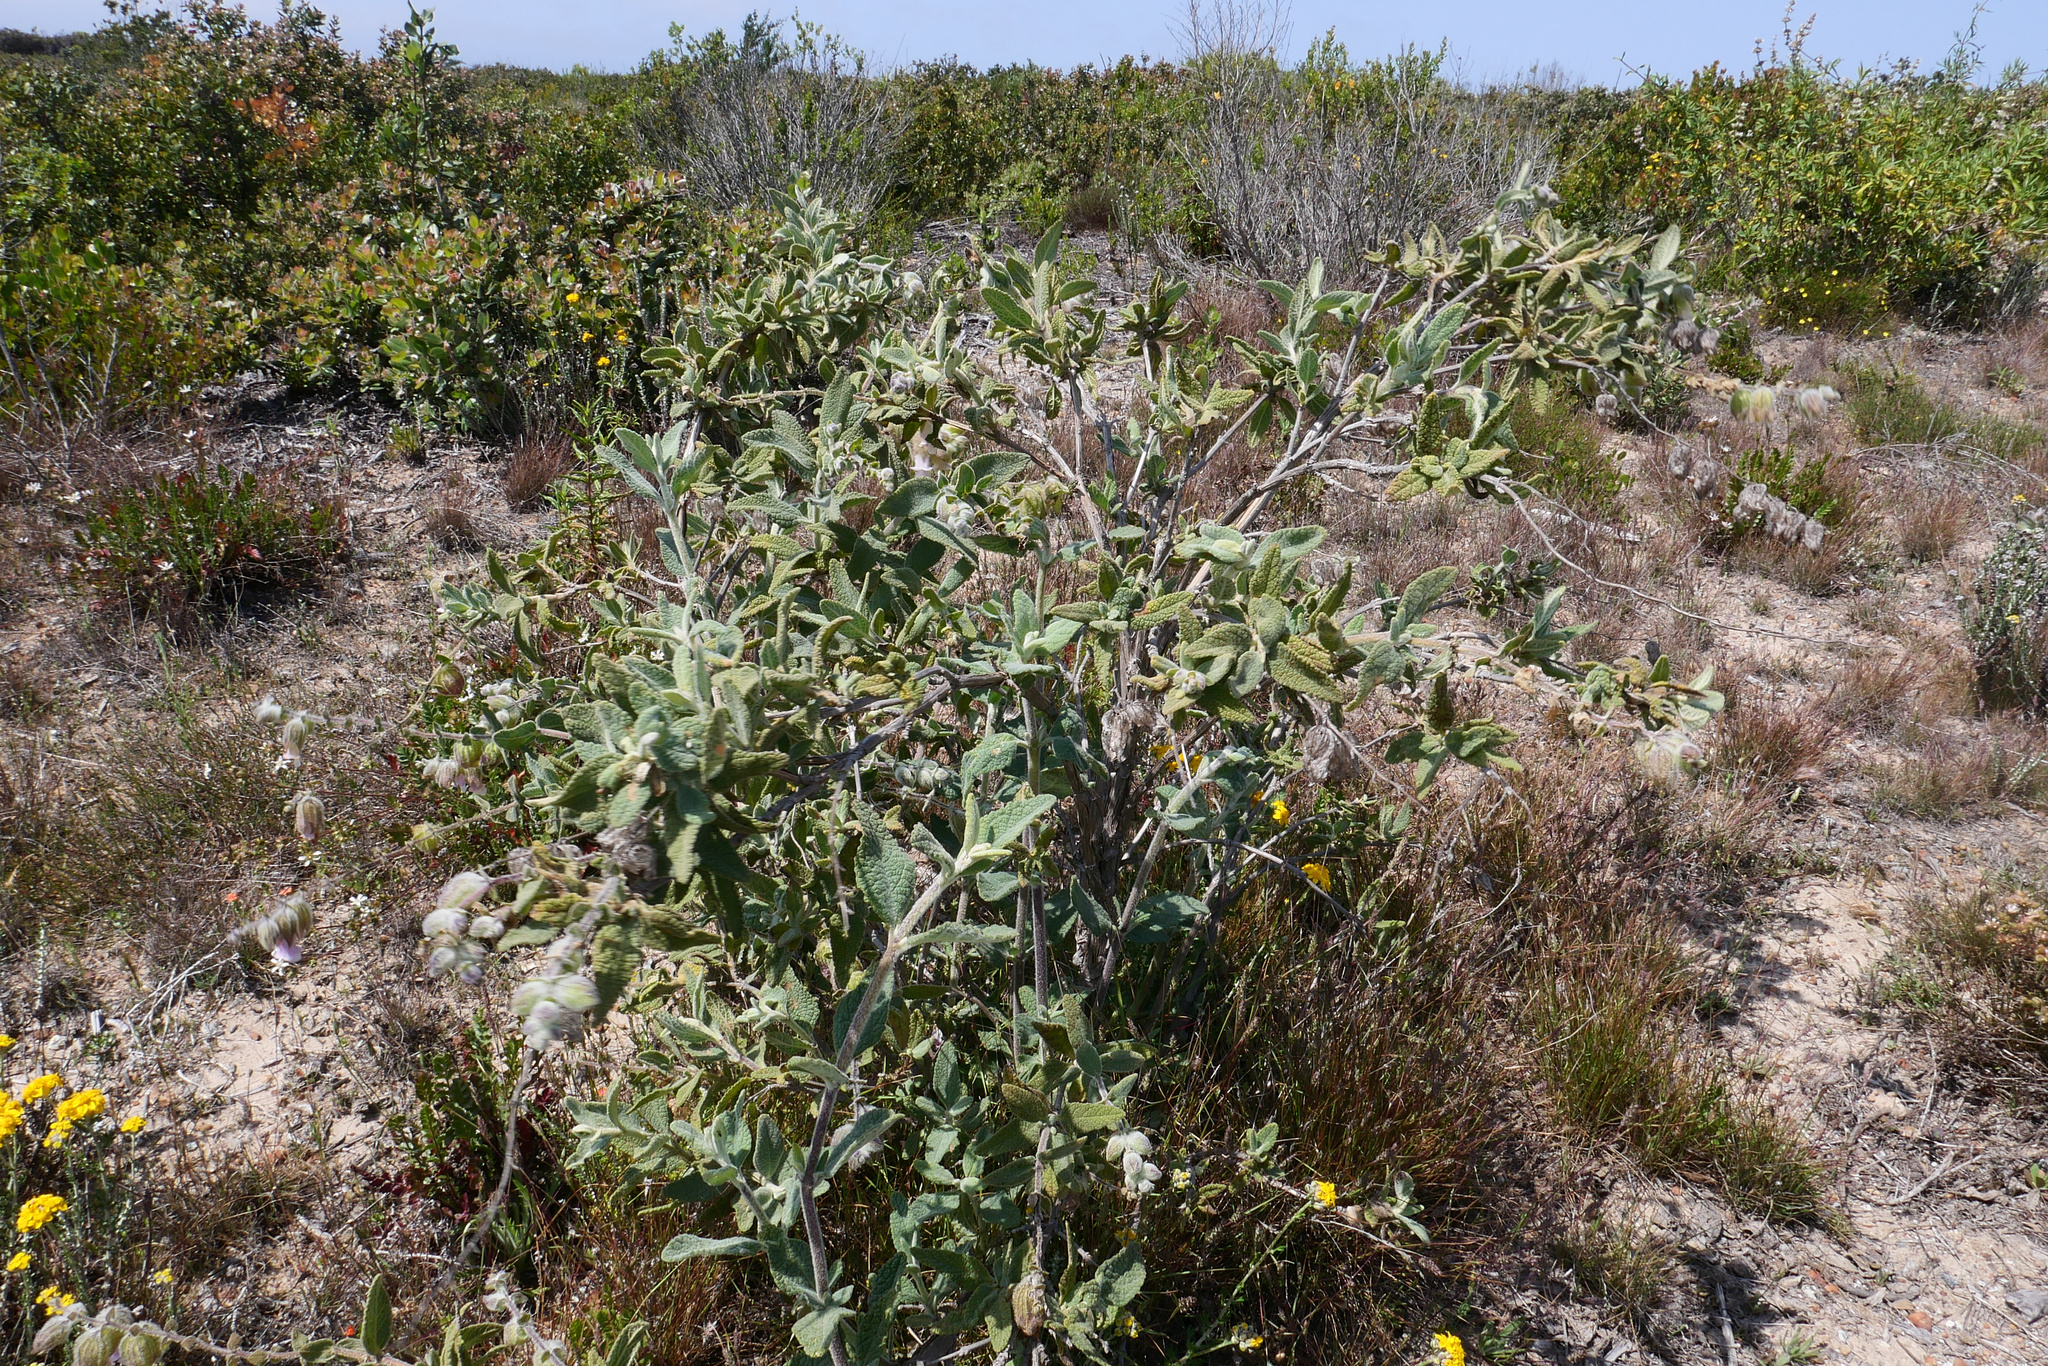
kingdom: Plantae
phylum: Tracheophyta
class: Magnoliopsida
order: Lamiales
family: Lamiaceae
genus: Lepechinia
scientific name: Lepechinia calycina
